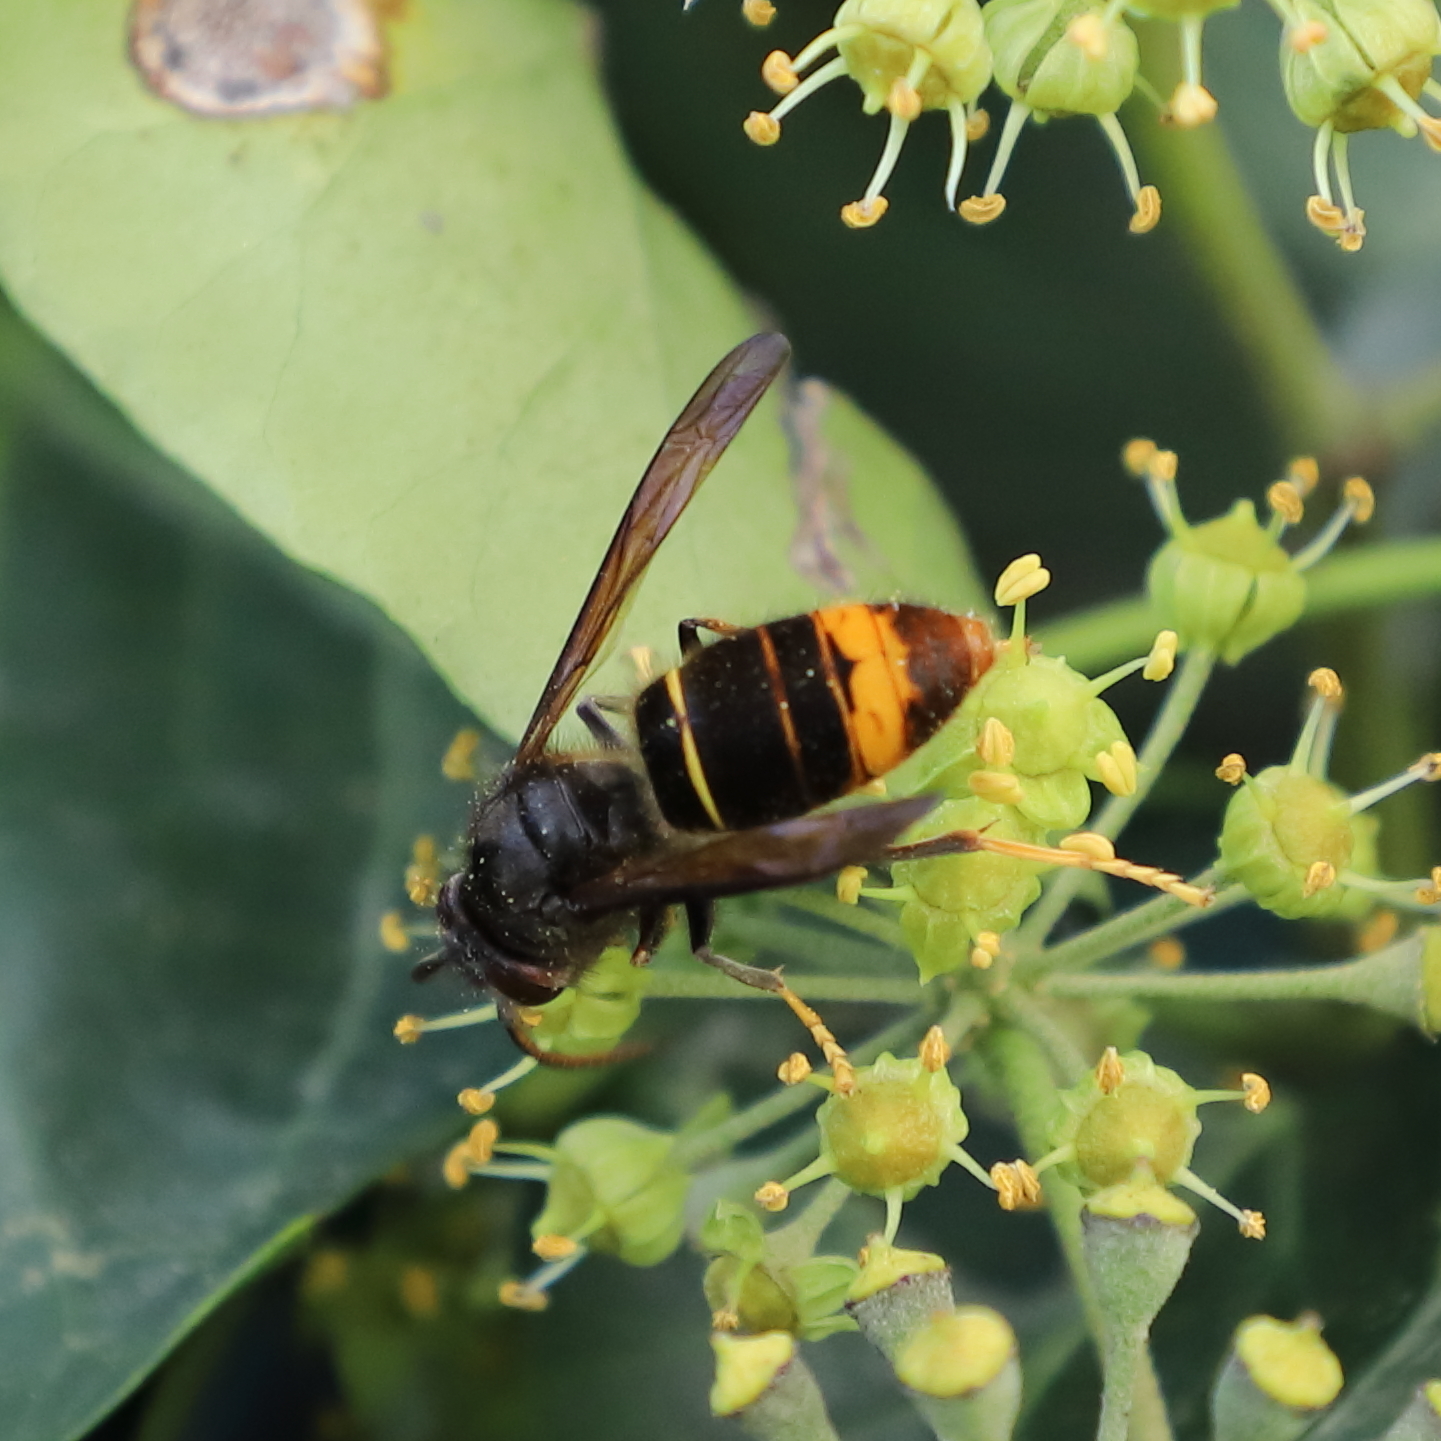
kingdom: Animalia
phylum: Arthropoda
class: Insecta
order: Hymenoptera
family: Vespidae
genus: Vespa
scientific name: Vespa velutina
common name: Asian hornet
